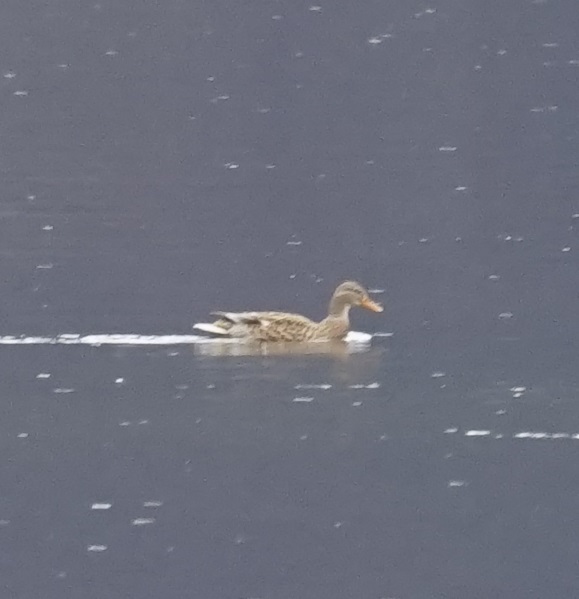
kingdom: Animalia
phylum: Chordata
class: Aves
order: Anseriformes
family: Anatidae
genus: Anas
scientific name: Anas platyrhynchos
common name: Mallard
